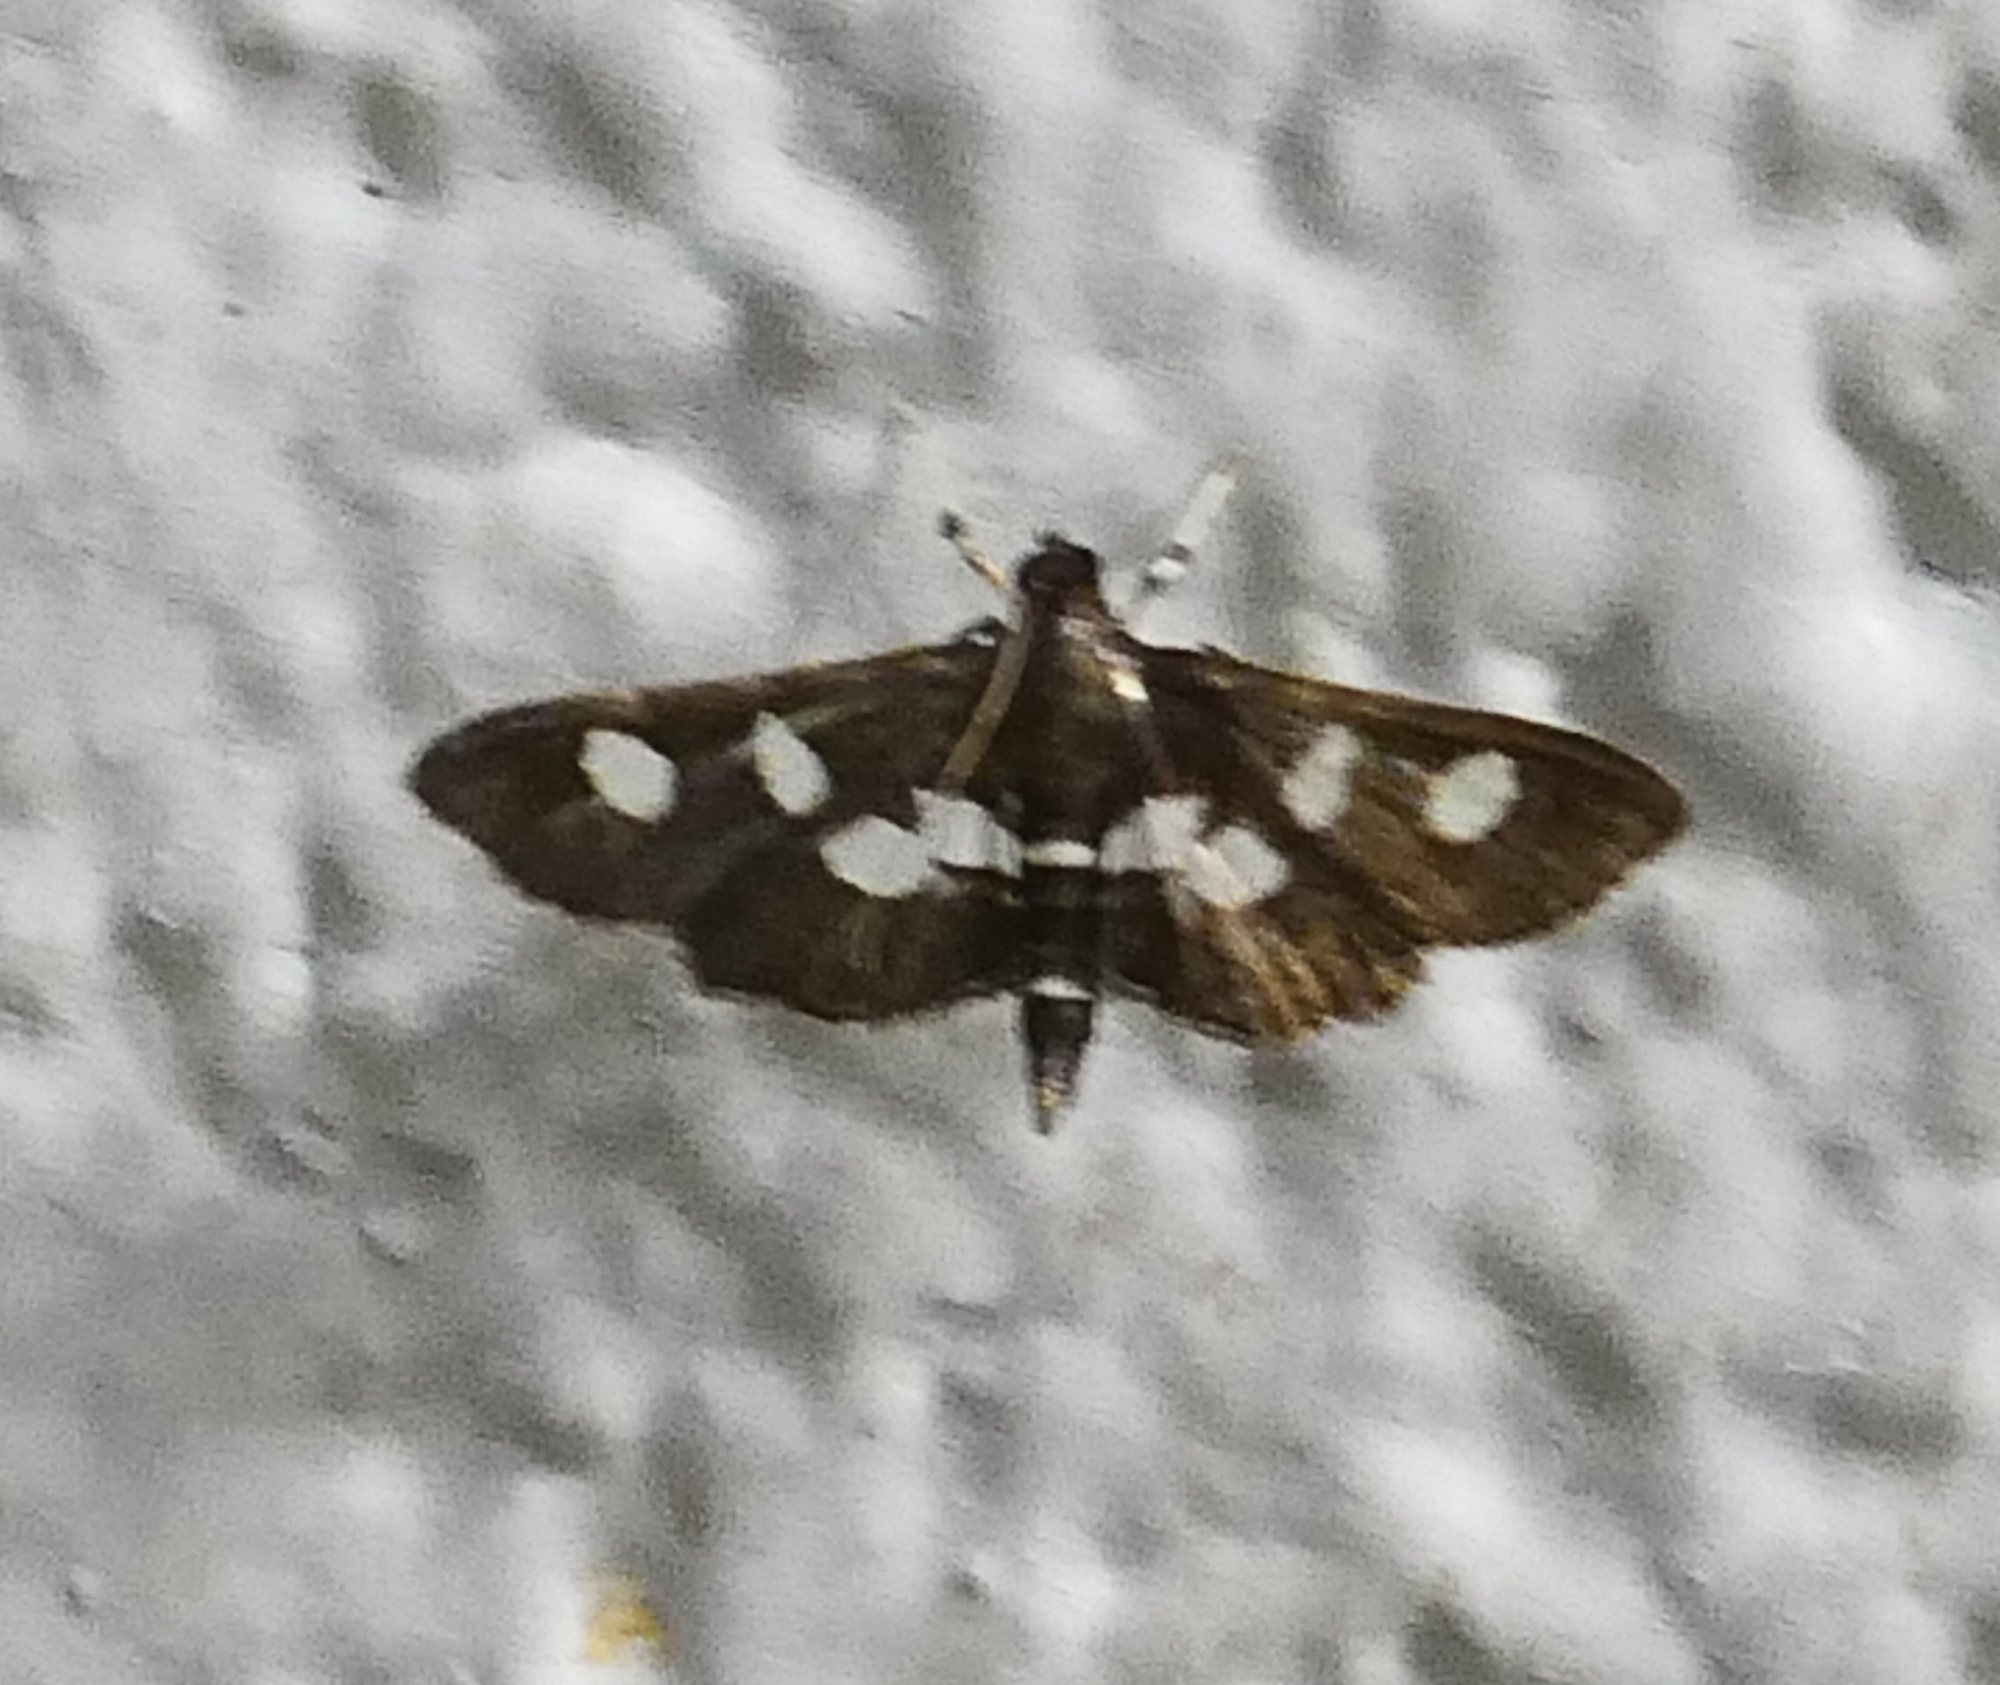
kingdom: Animalia
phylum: Arthropoda
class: Insecta
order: Lepidoptera
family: Crambidae
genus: Desmia
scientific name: Desmia
